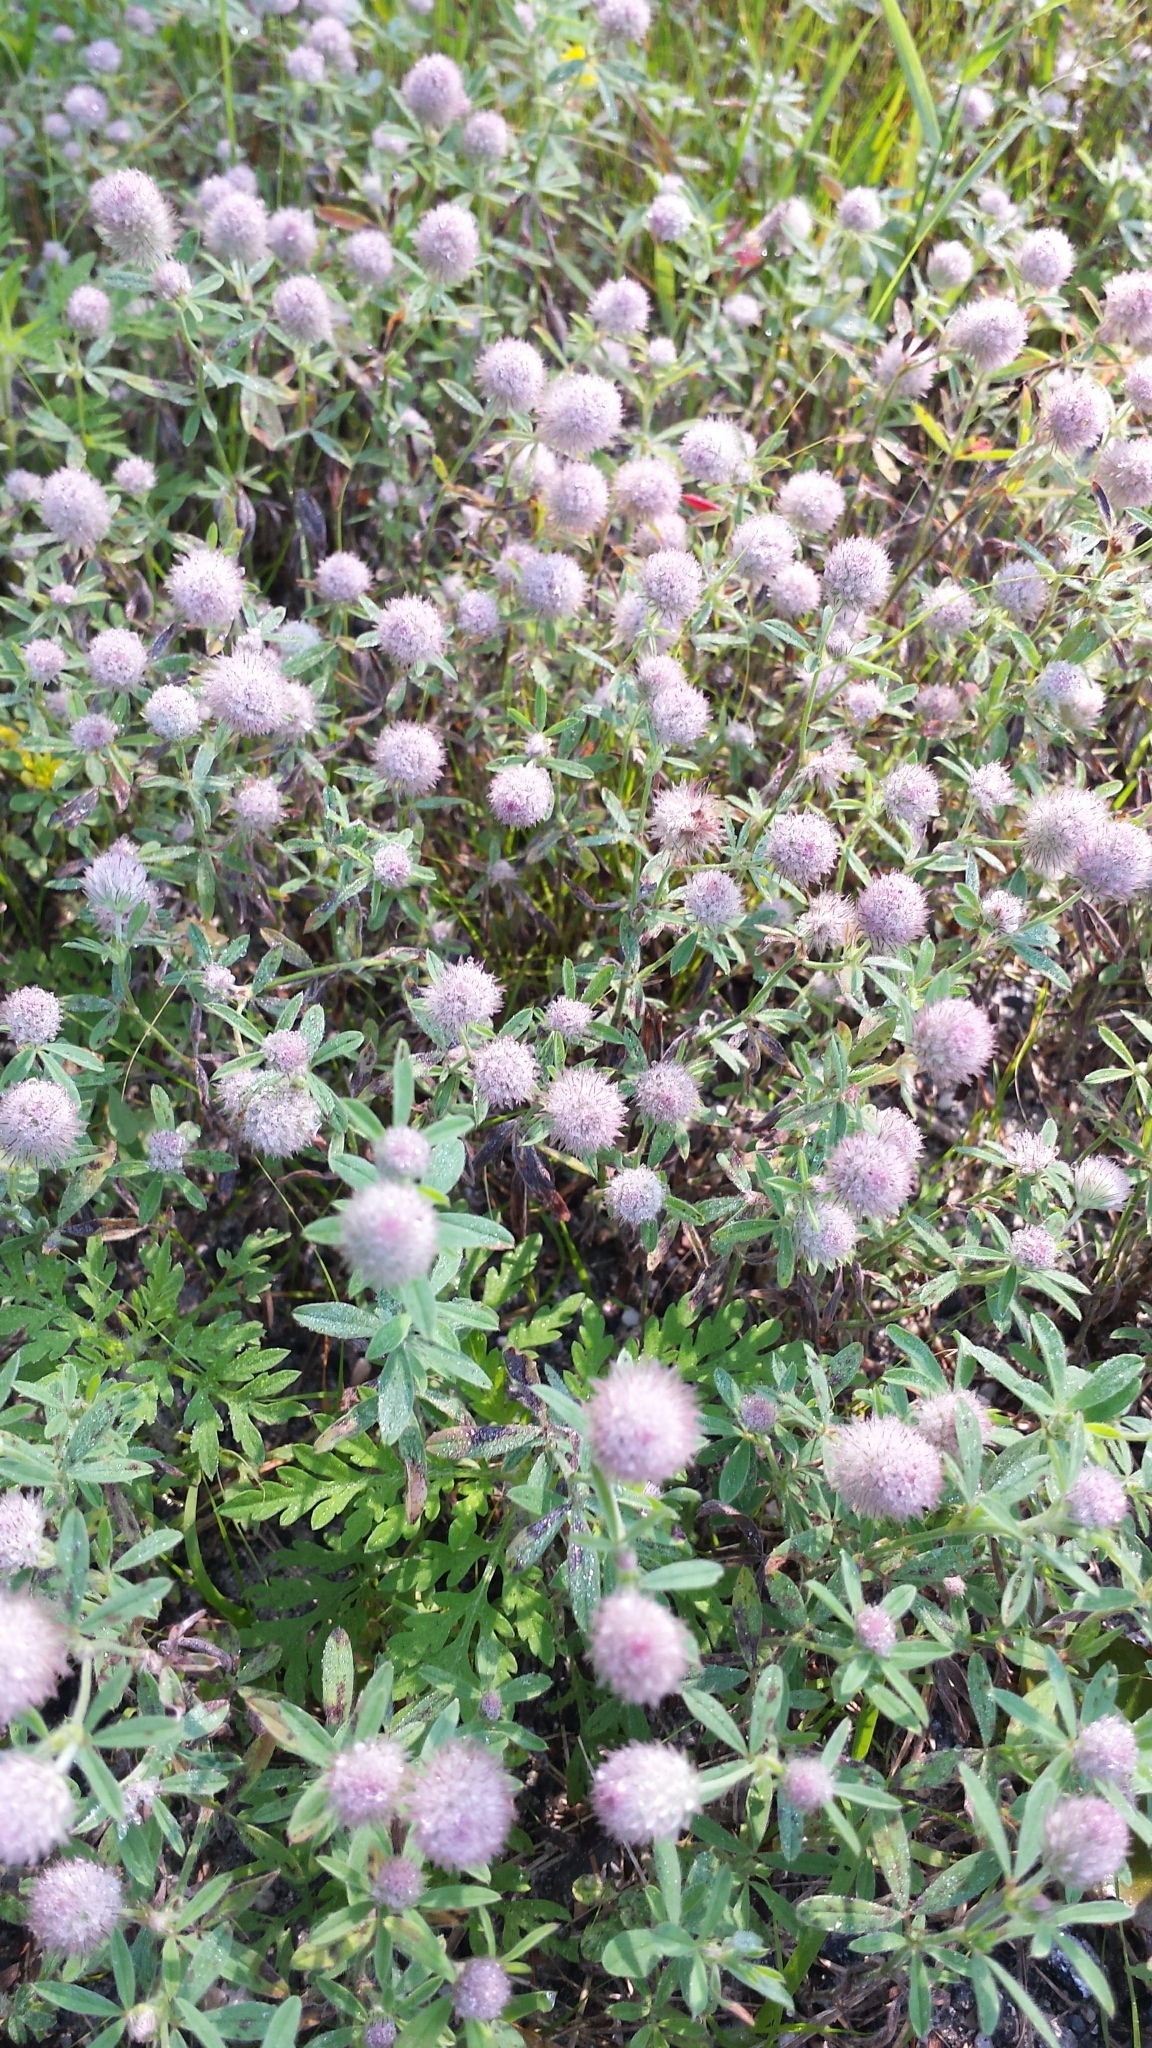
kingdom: Plantae
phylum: Tracheophyta
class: Magnoliopsida
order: Fabales
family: Fabaceae
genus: Trifolium
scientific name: Trifolium arvense
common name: Hare's-foot clover
